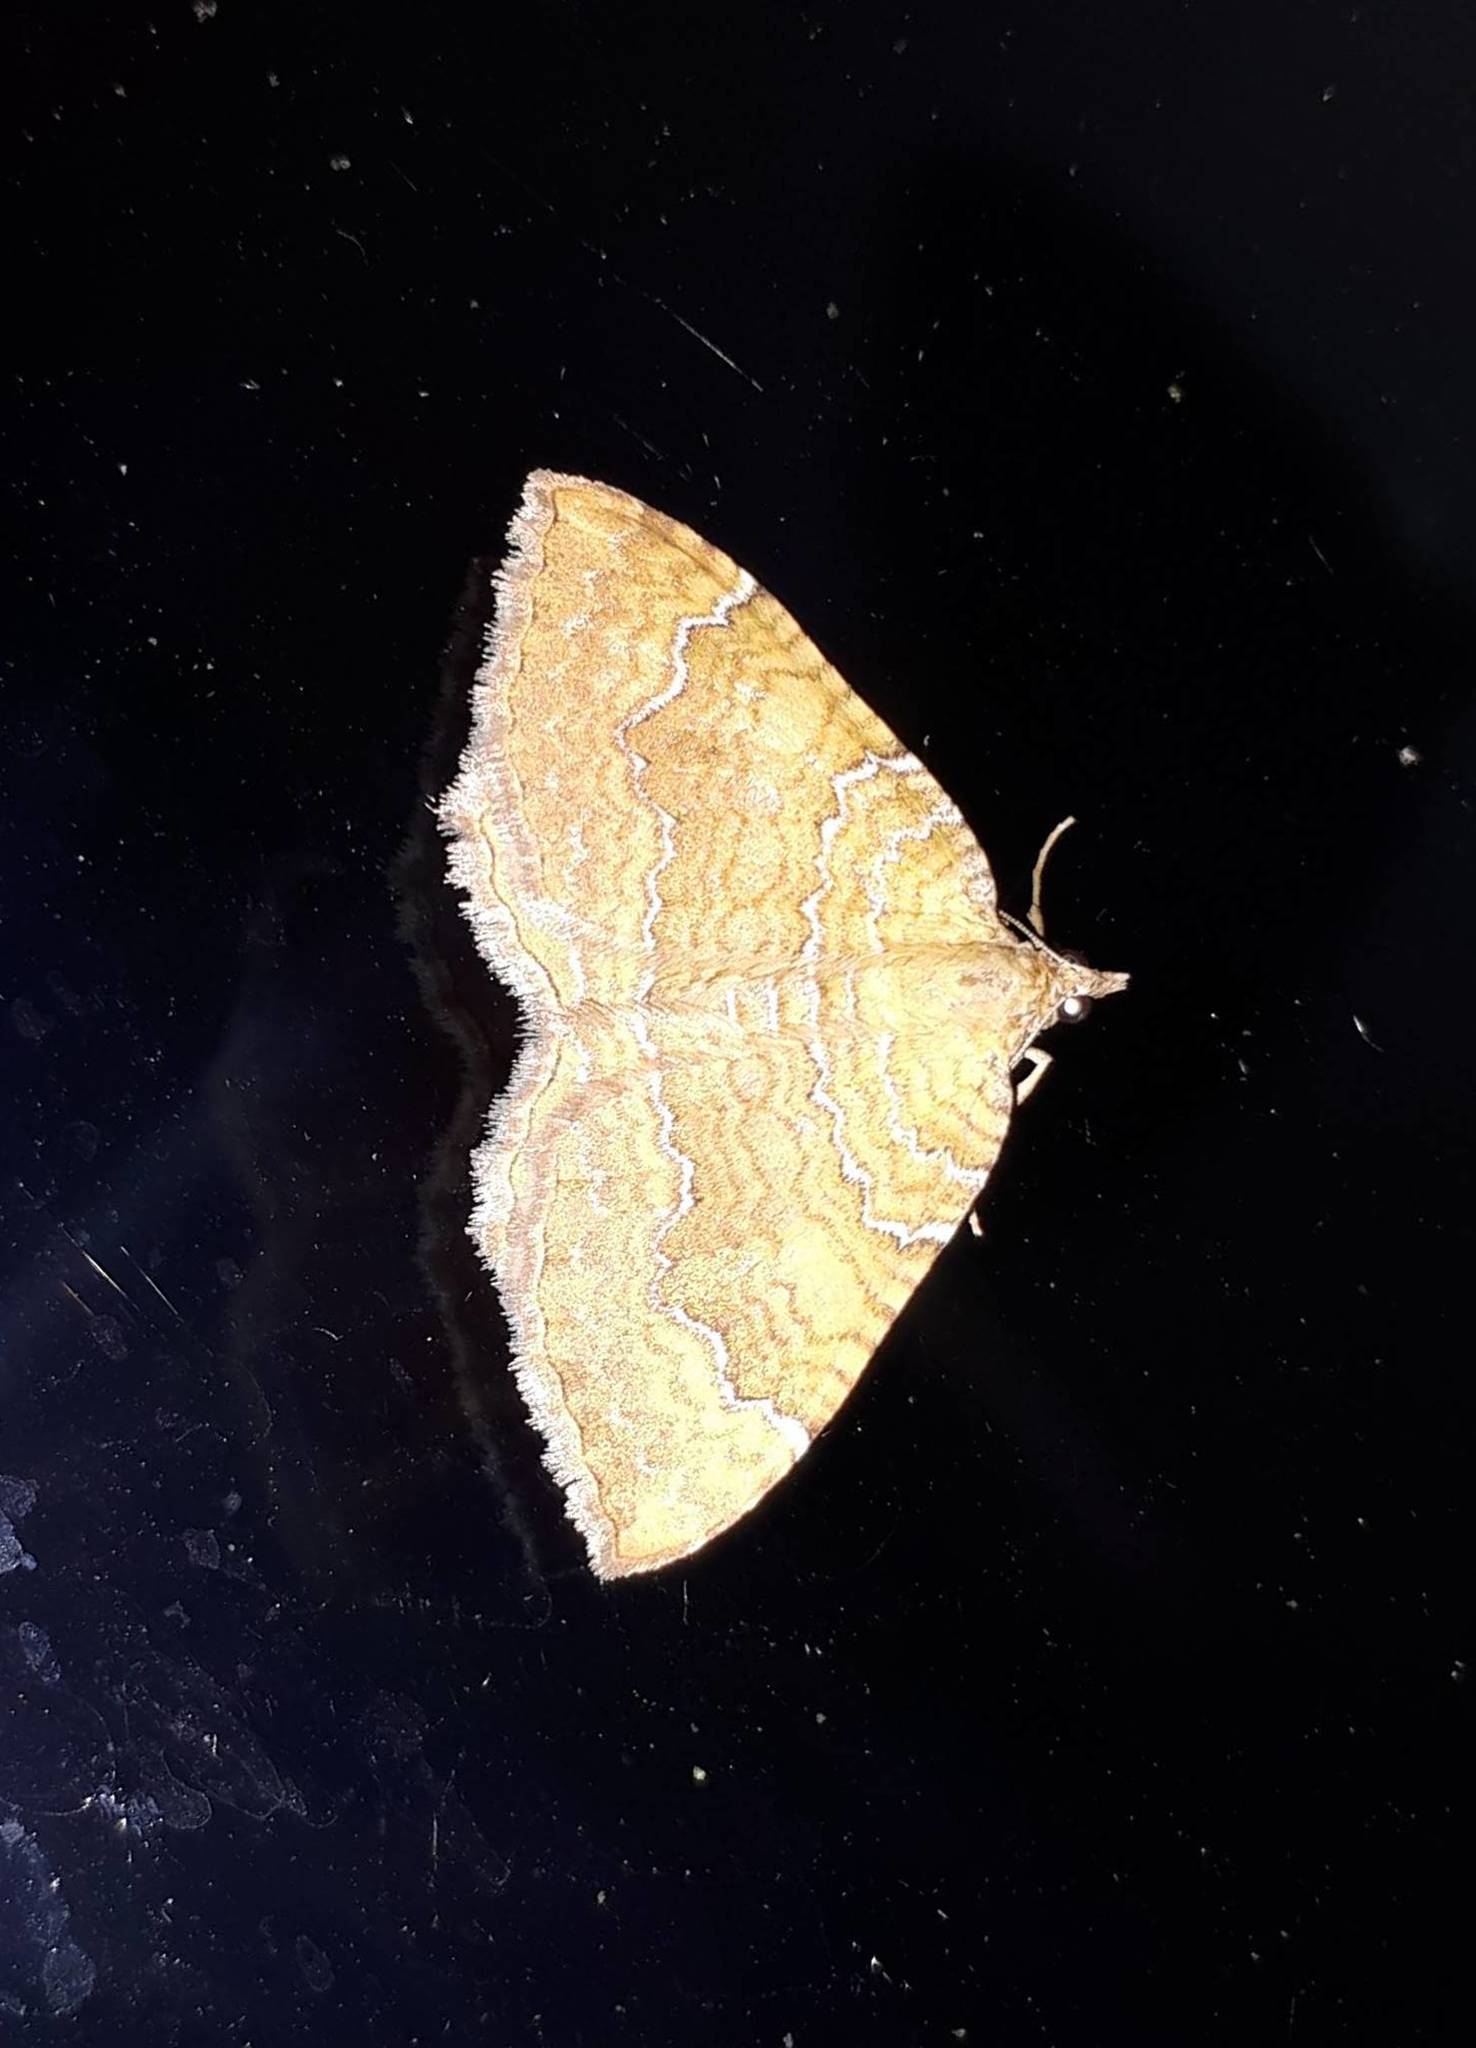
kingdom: Animalia
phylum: Arthropoda
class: Insecta
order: Lepidoptera
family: Geometridae
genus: Camptogramma
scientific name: Camptogramma bilineata
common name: Yellow shell
